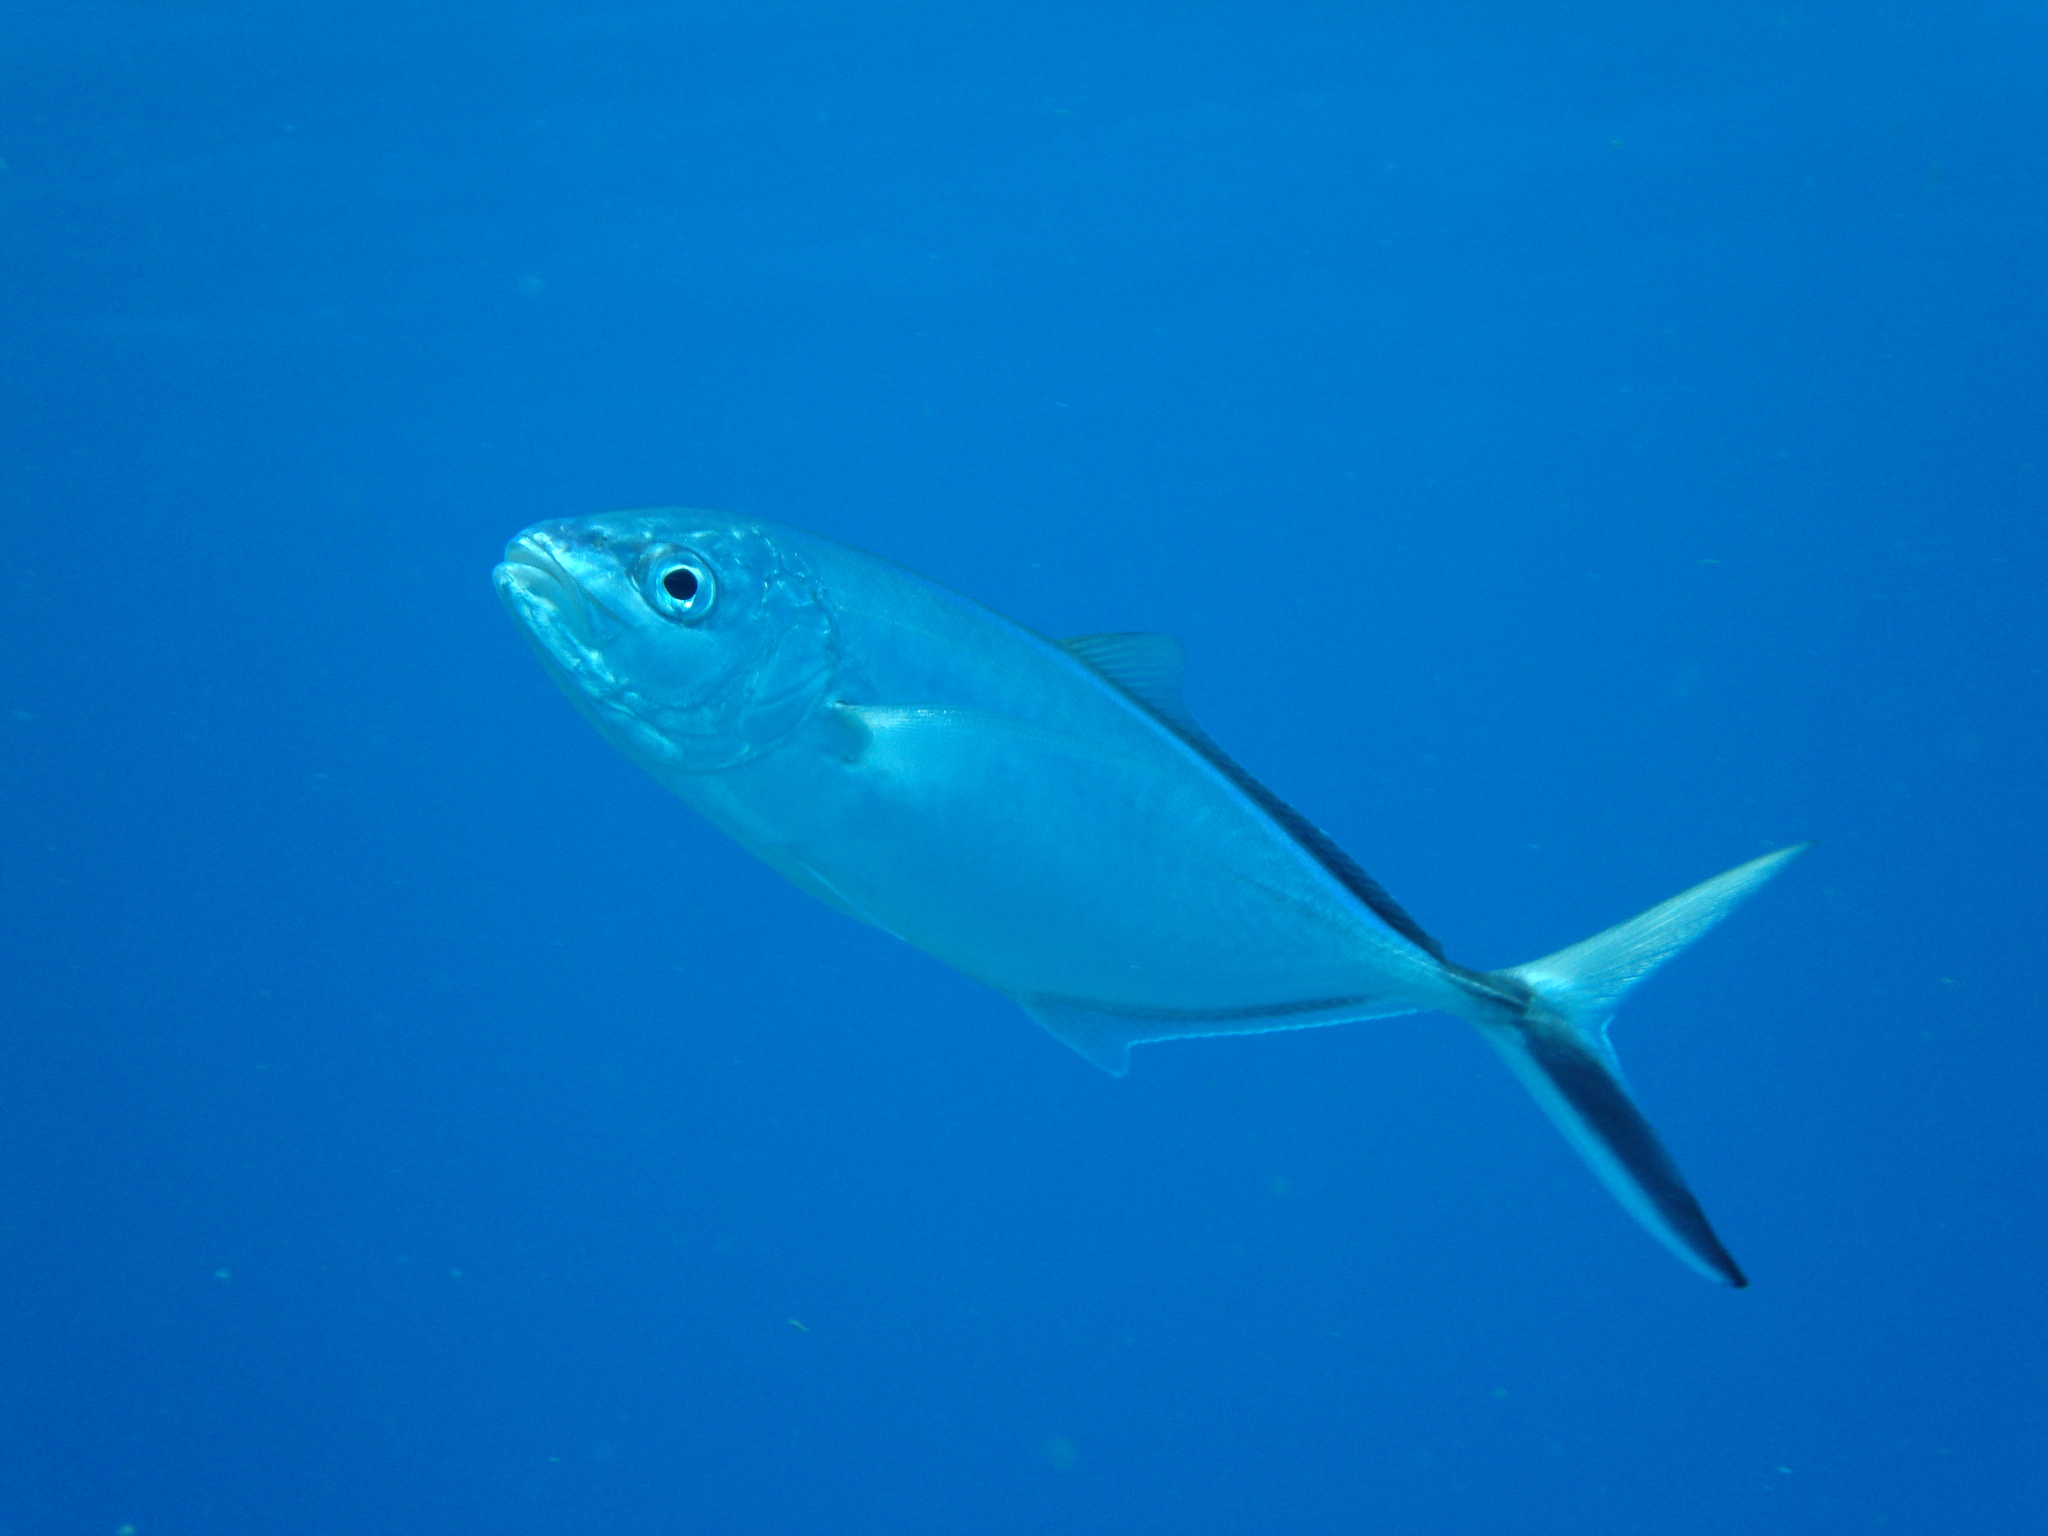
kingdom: Animalia
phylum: Chordata
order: Perciformes
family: Carangidae
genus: Caranx
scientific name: Caranx ruber
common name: Bar jack
